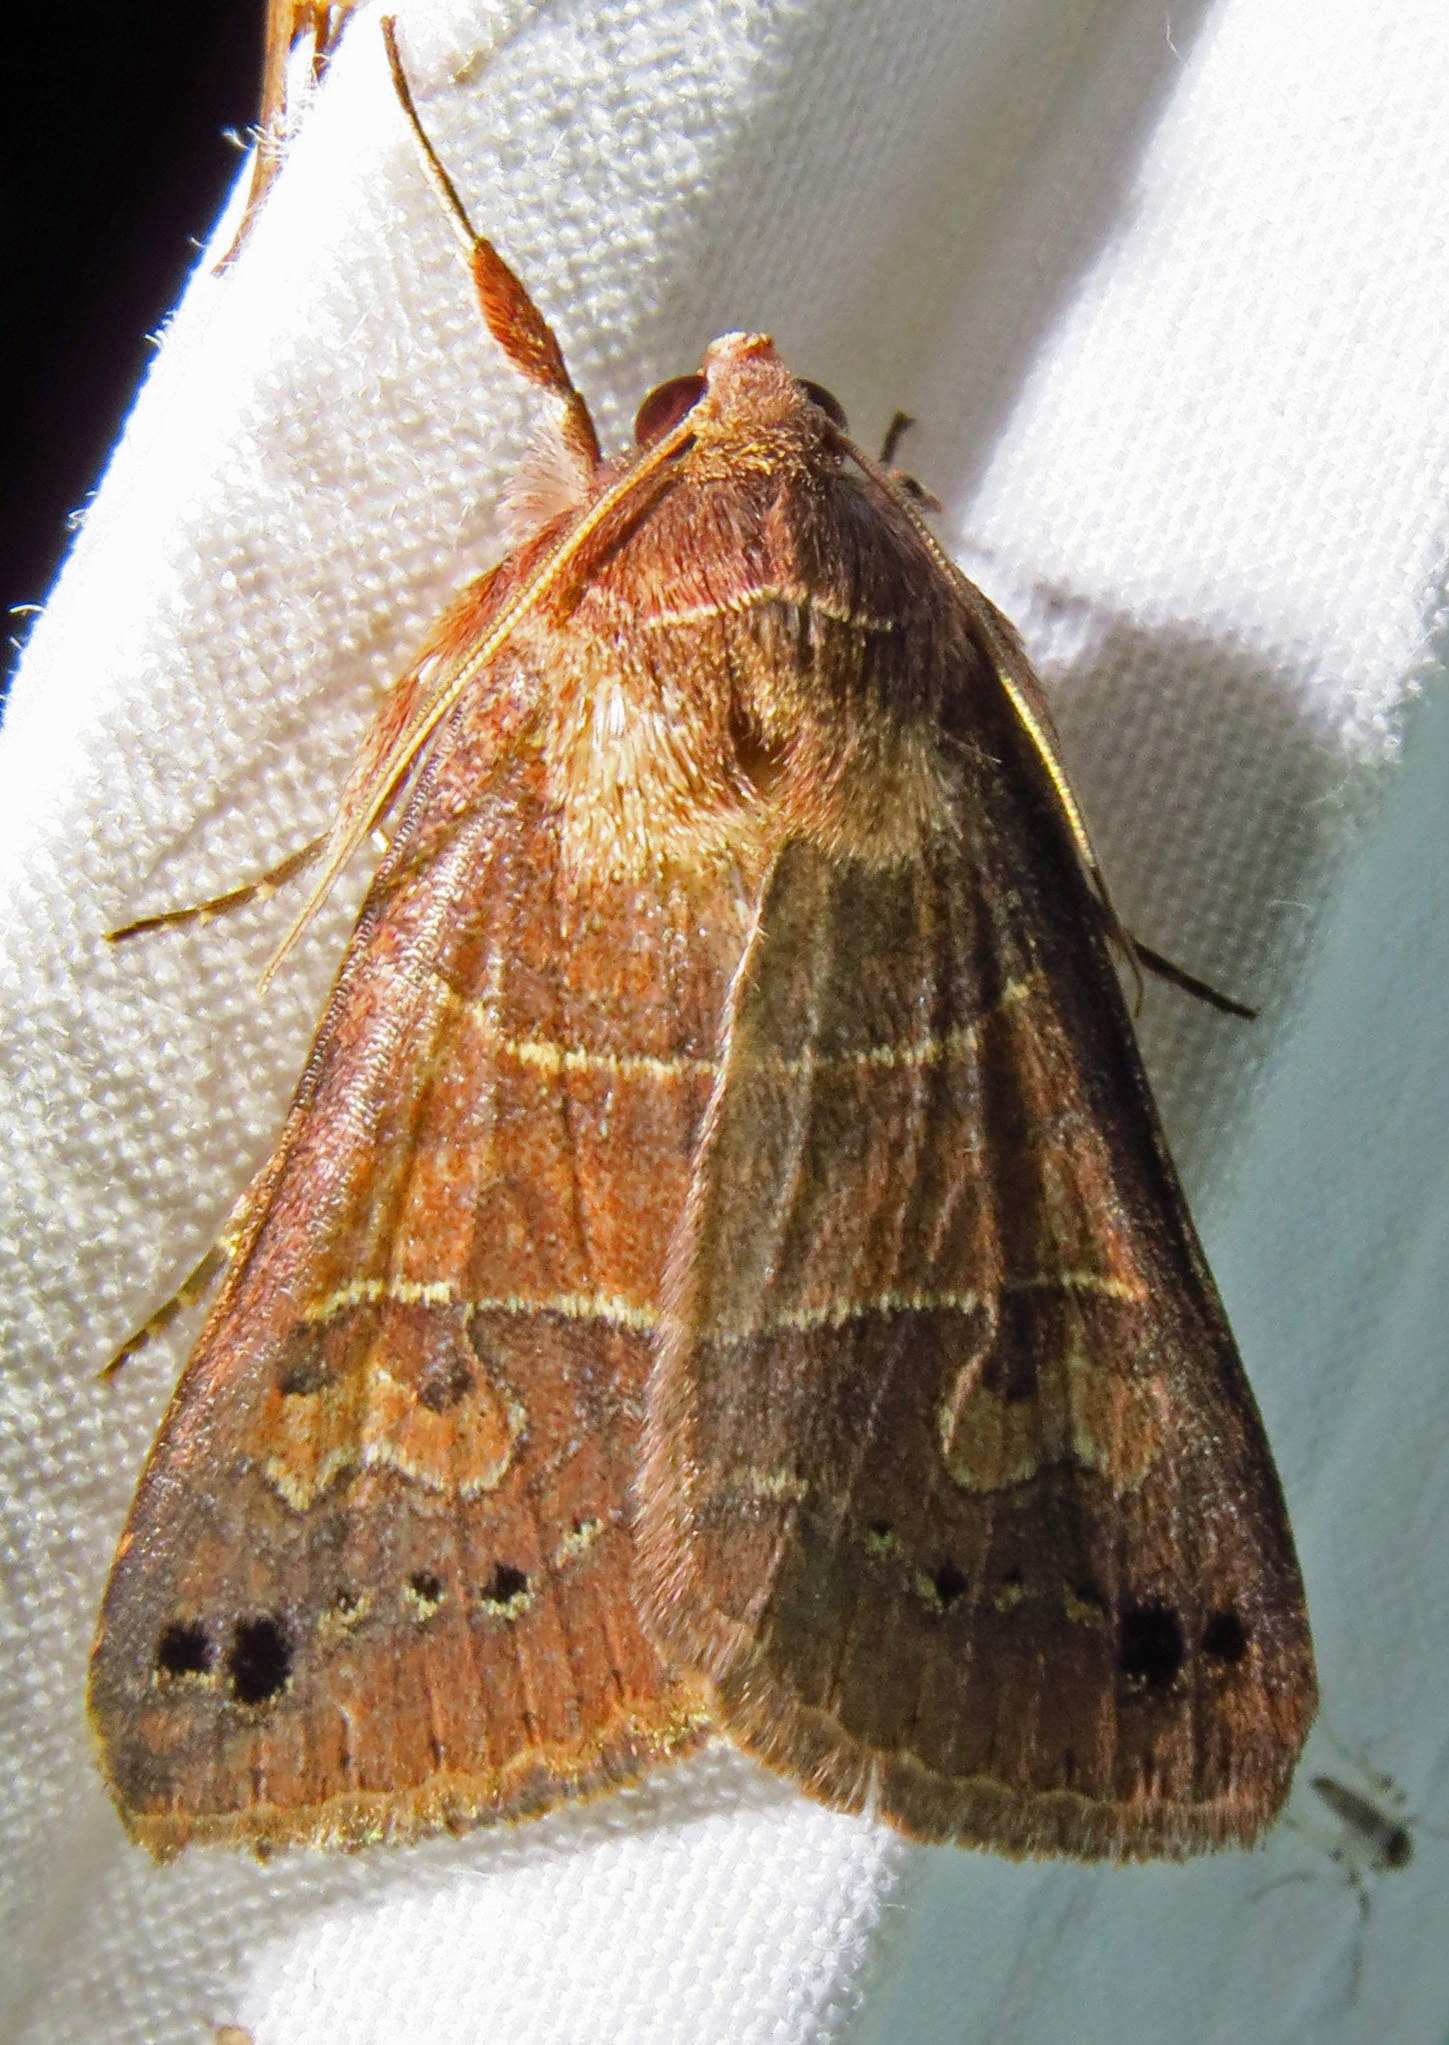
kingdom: Animalia
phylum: Arthropoda
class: Insecta
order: Lepidoptera
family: Erebidae
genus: Cissusa
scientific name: Cissusa spadix
